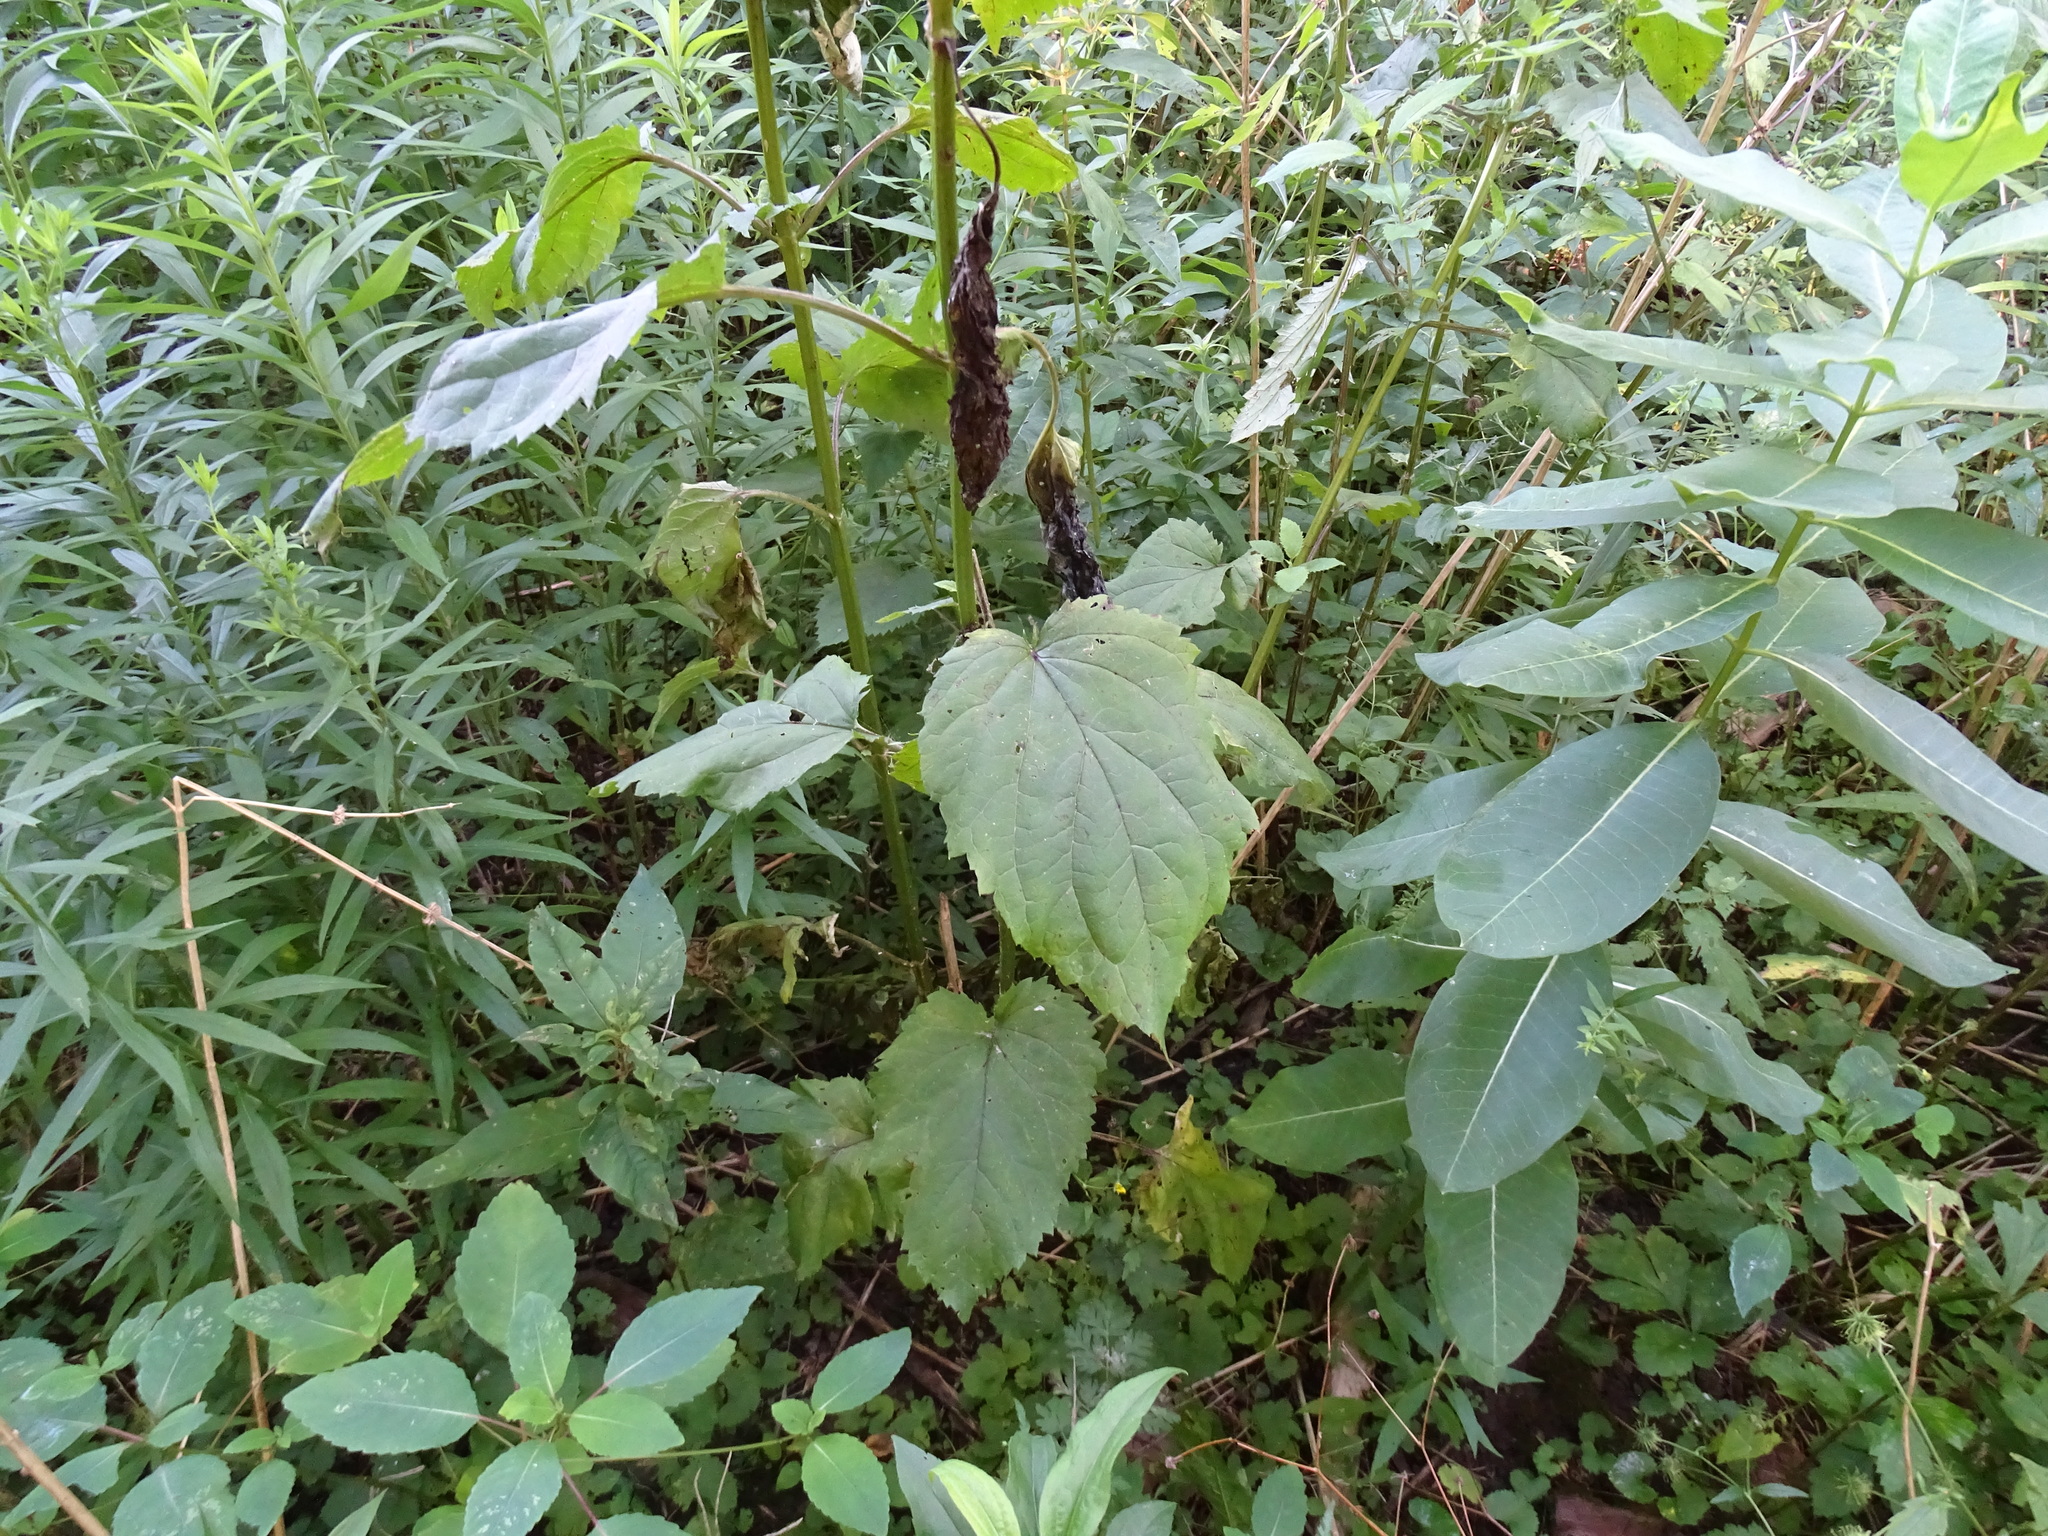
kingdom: Plantae
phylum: Tracheophyta
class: Magnoliopsida
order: Lamiales
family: Scrophulariaceae
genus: Scrophularia
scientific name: Scrophularia marilandica
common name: Eastern figwort
